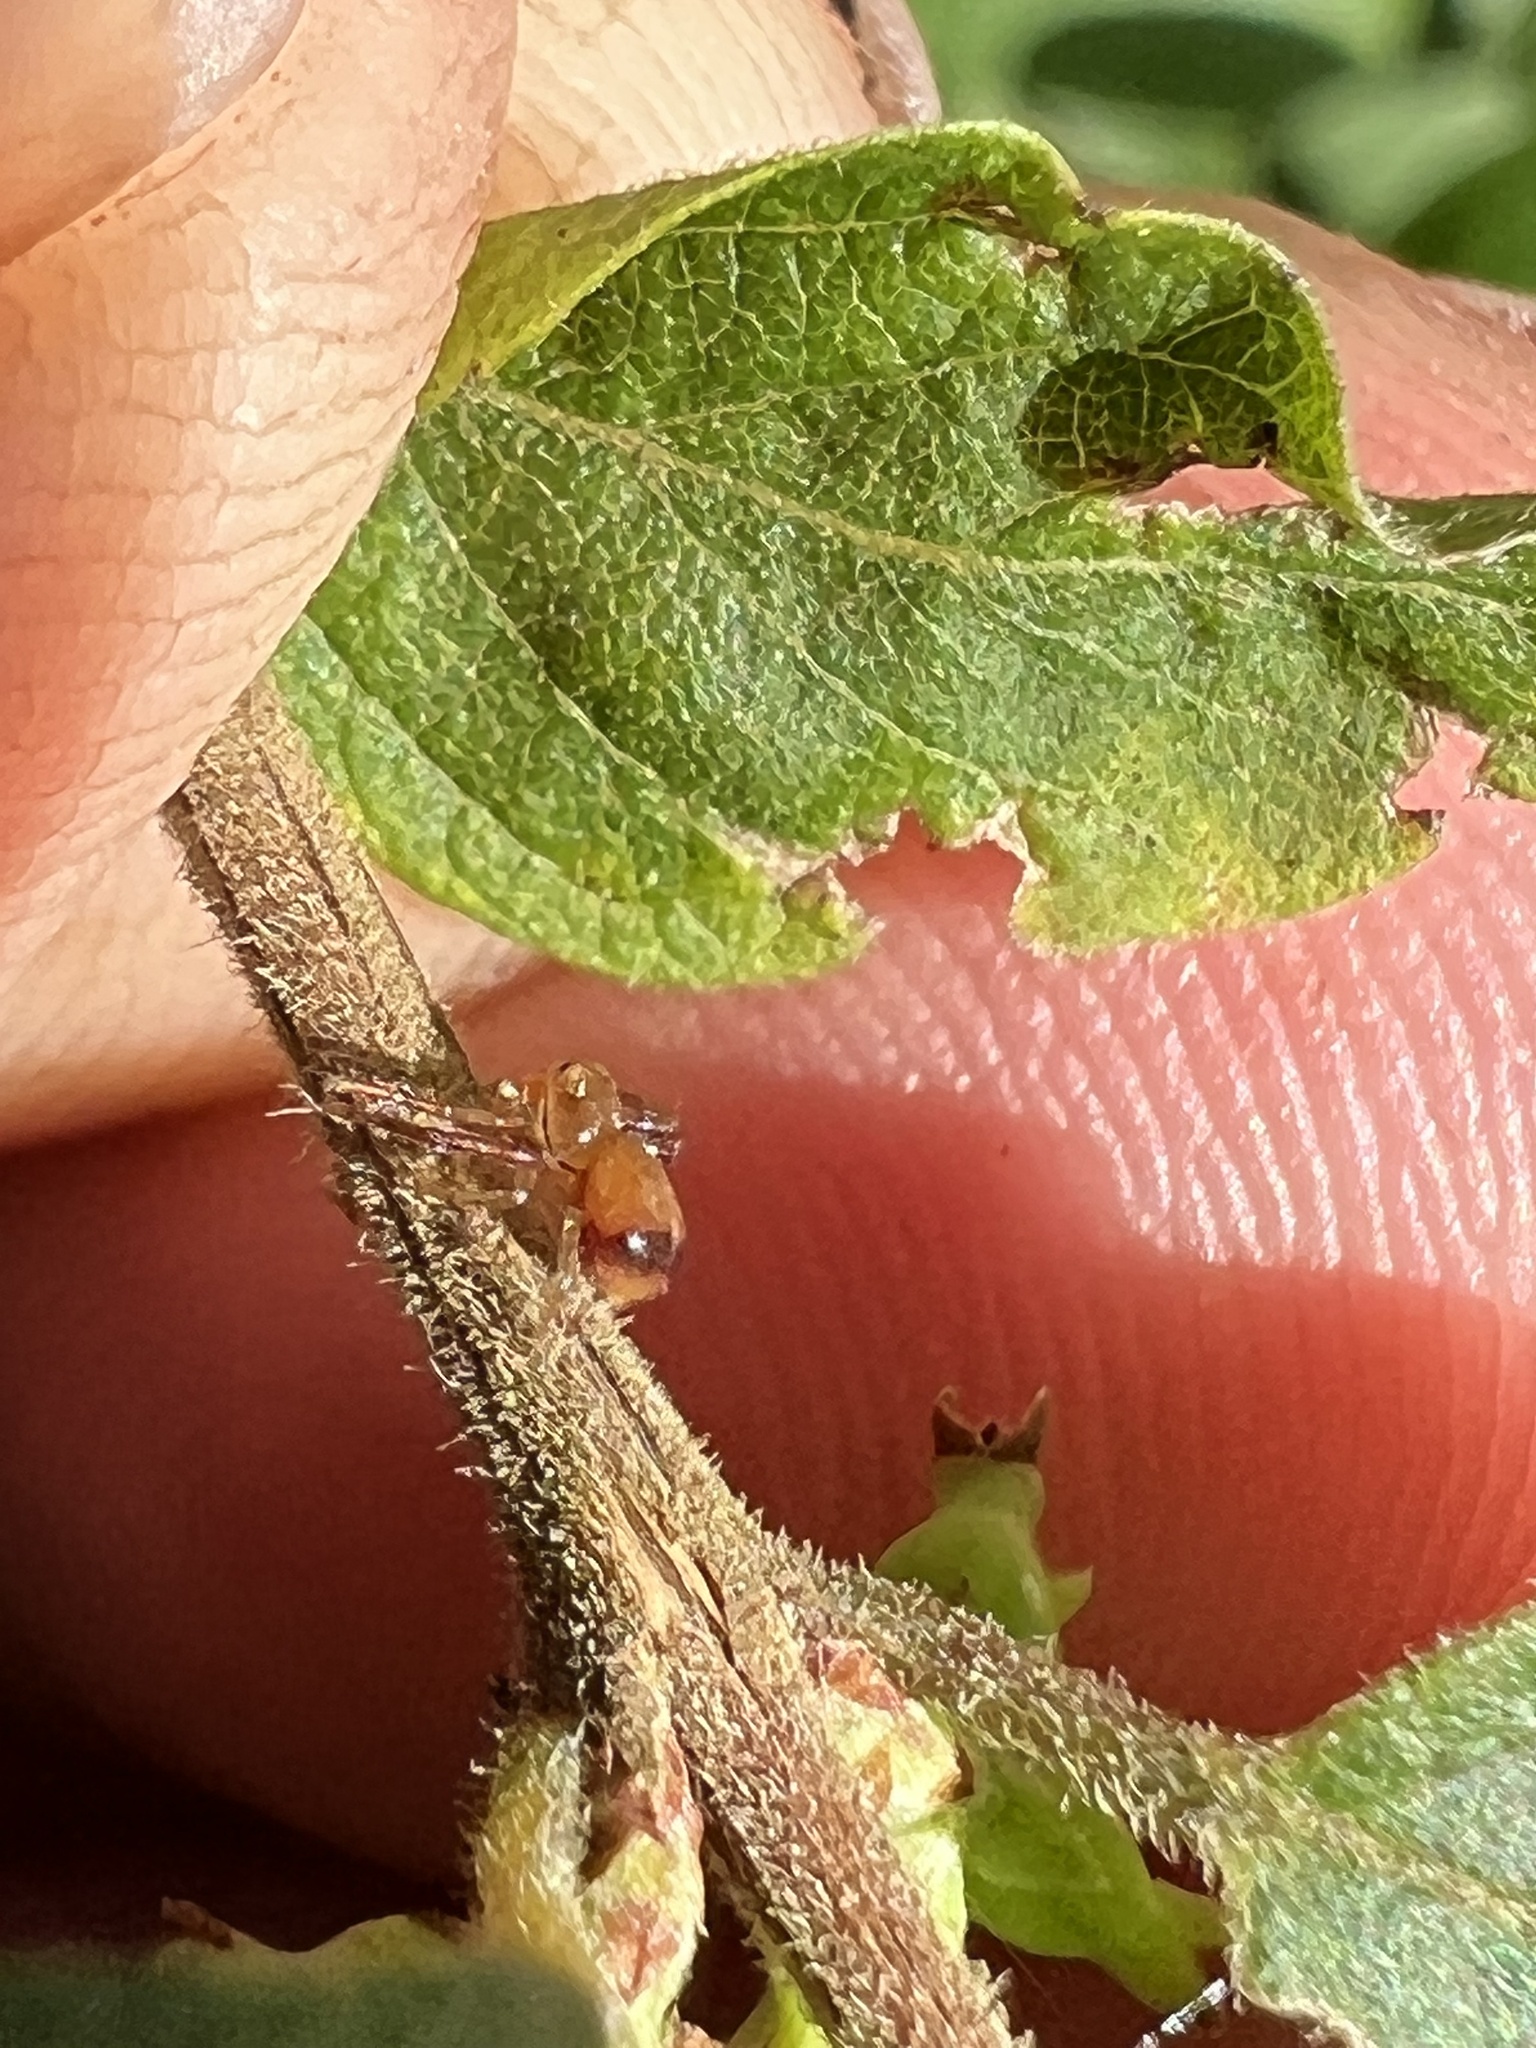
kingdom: Animalia
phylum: Arthropoda
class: Arachnida
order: Araneae
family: Thomisidae
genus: Synema
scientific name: Synema parvulum
